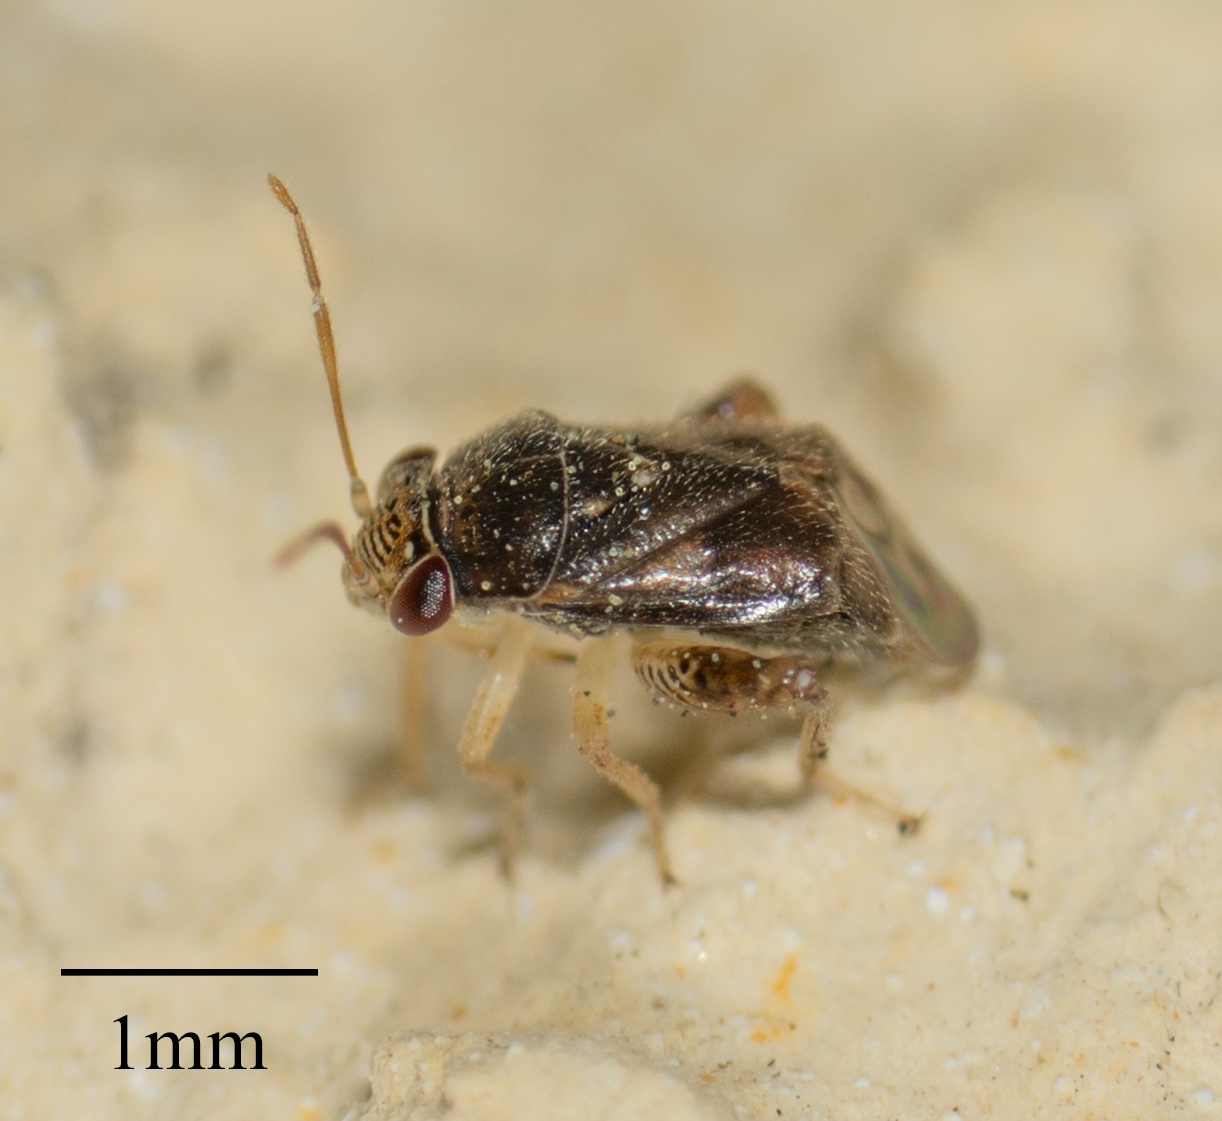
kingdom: Animalia
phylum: Arthropoda
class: Insecta
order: Hemiptera
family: Miridae
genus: Coridromius
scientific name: Coridromius chenopoderis
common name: Plant bug
